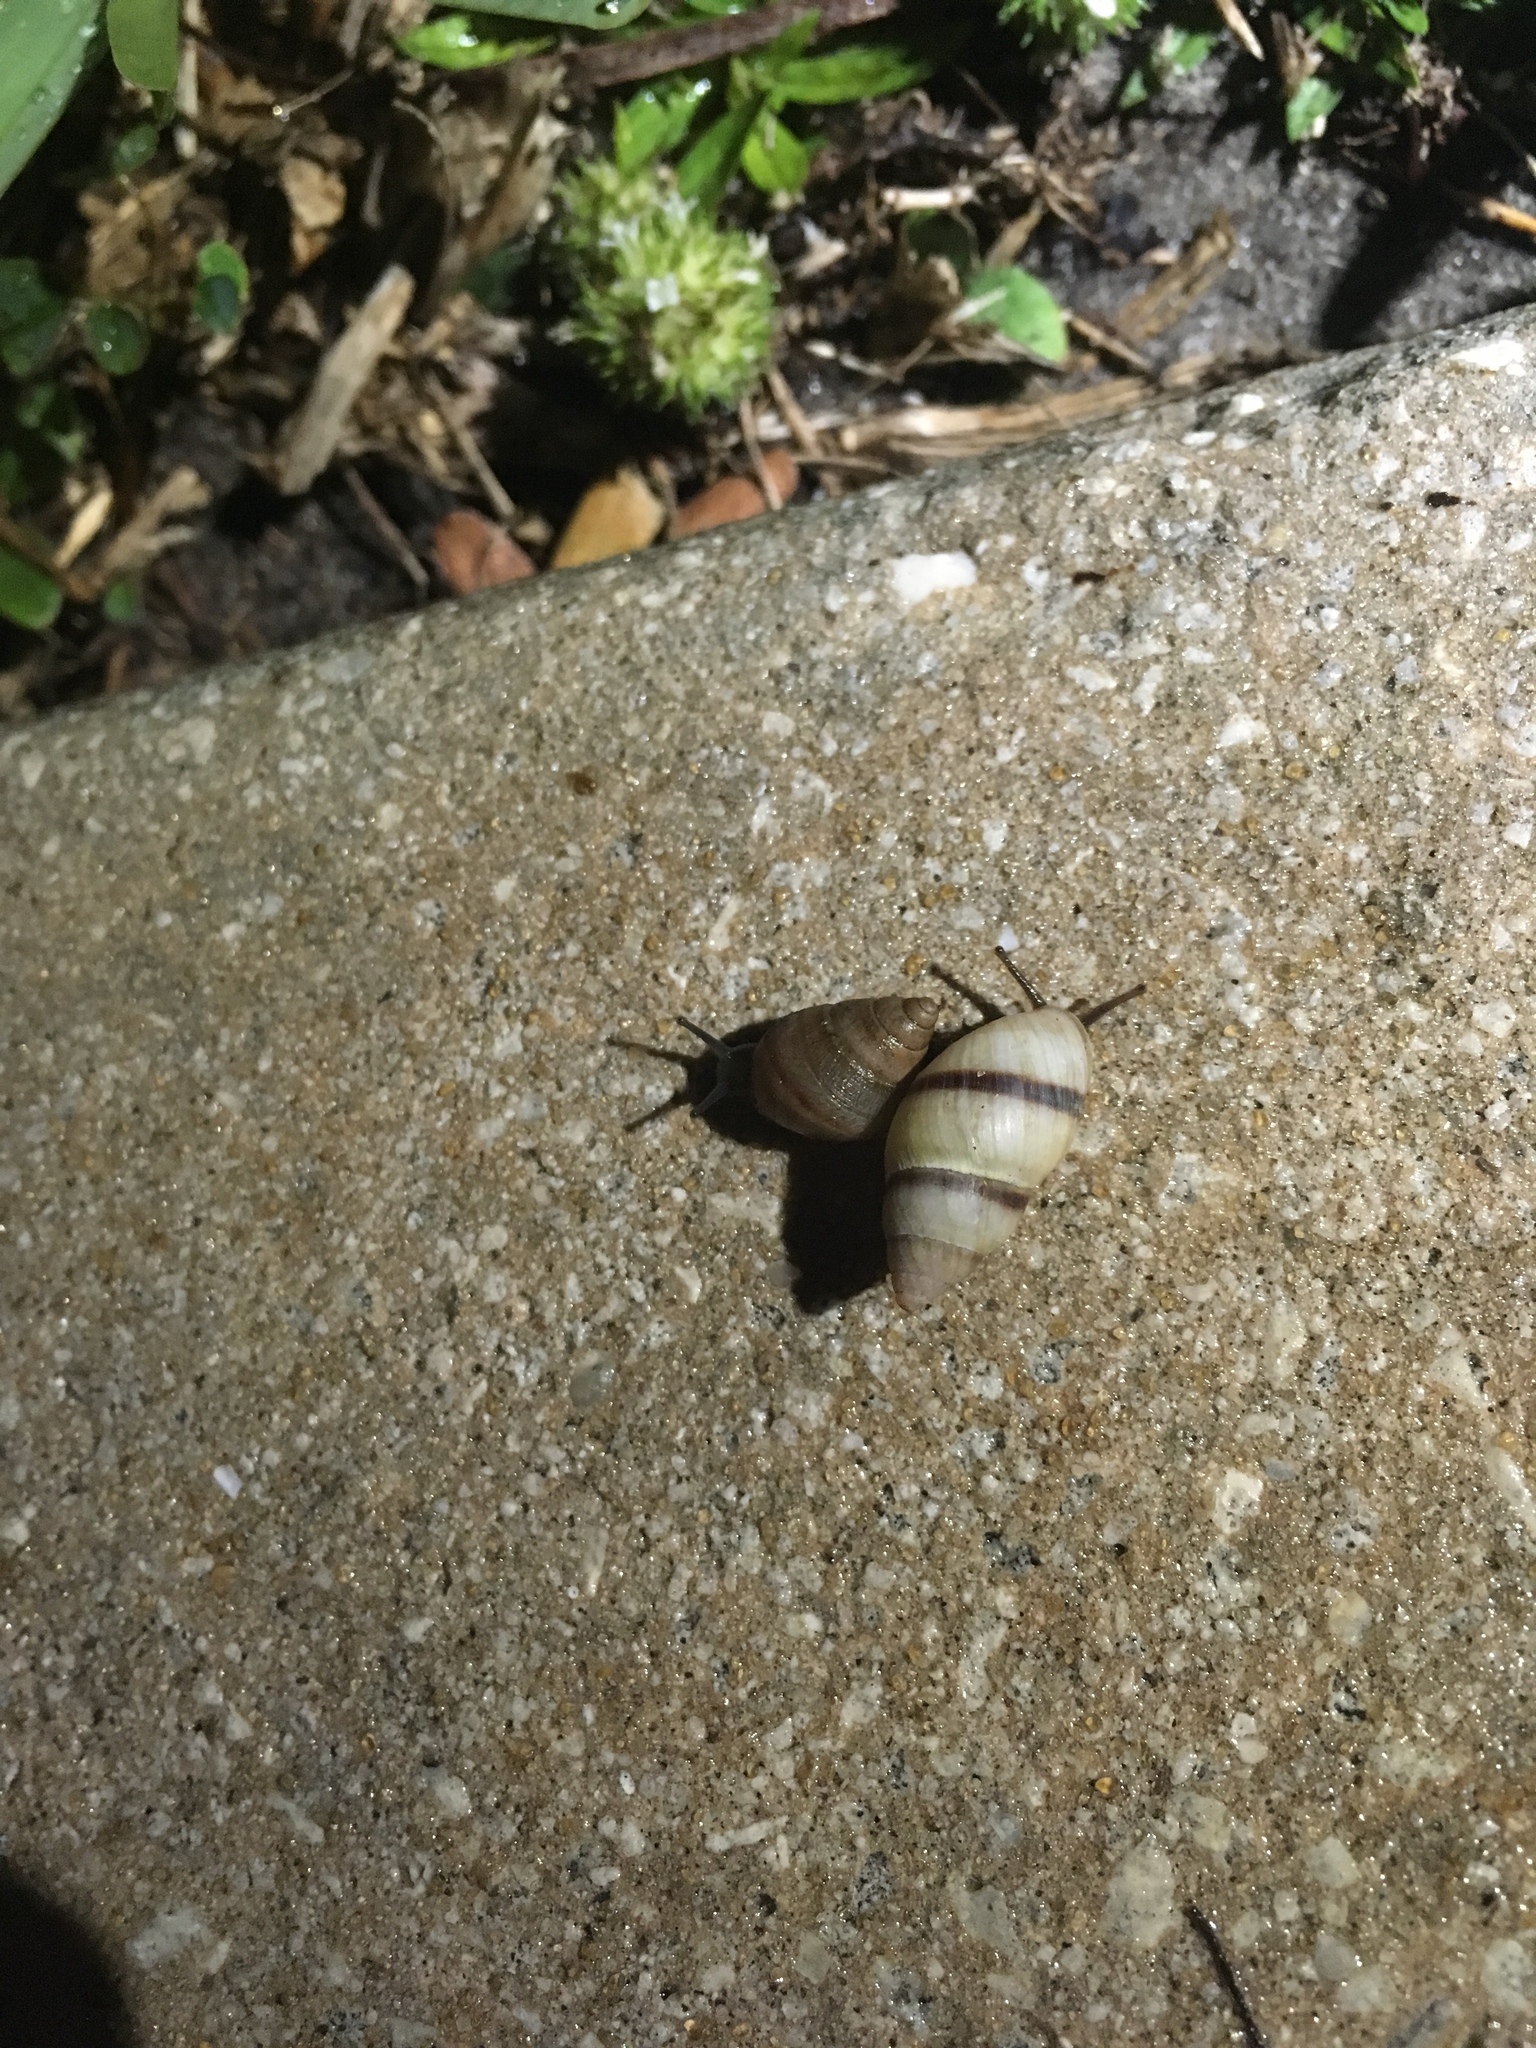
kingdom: Animalia
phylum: Mollusca
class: Gastropoda
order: Stylommatophora
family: Bulimulidae
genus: Bulimulus
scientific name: Bulimulus guadalupensis
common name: West indian bulimulus
